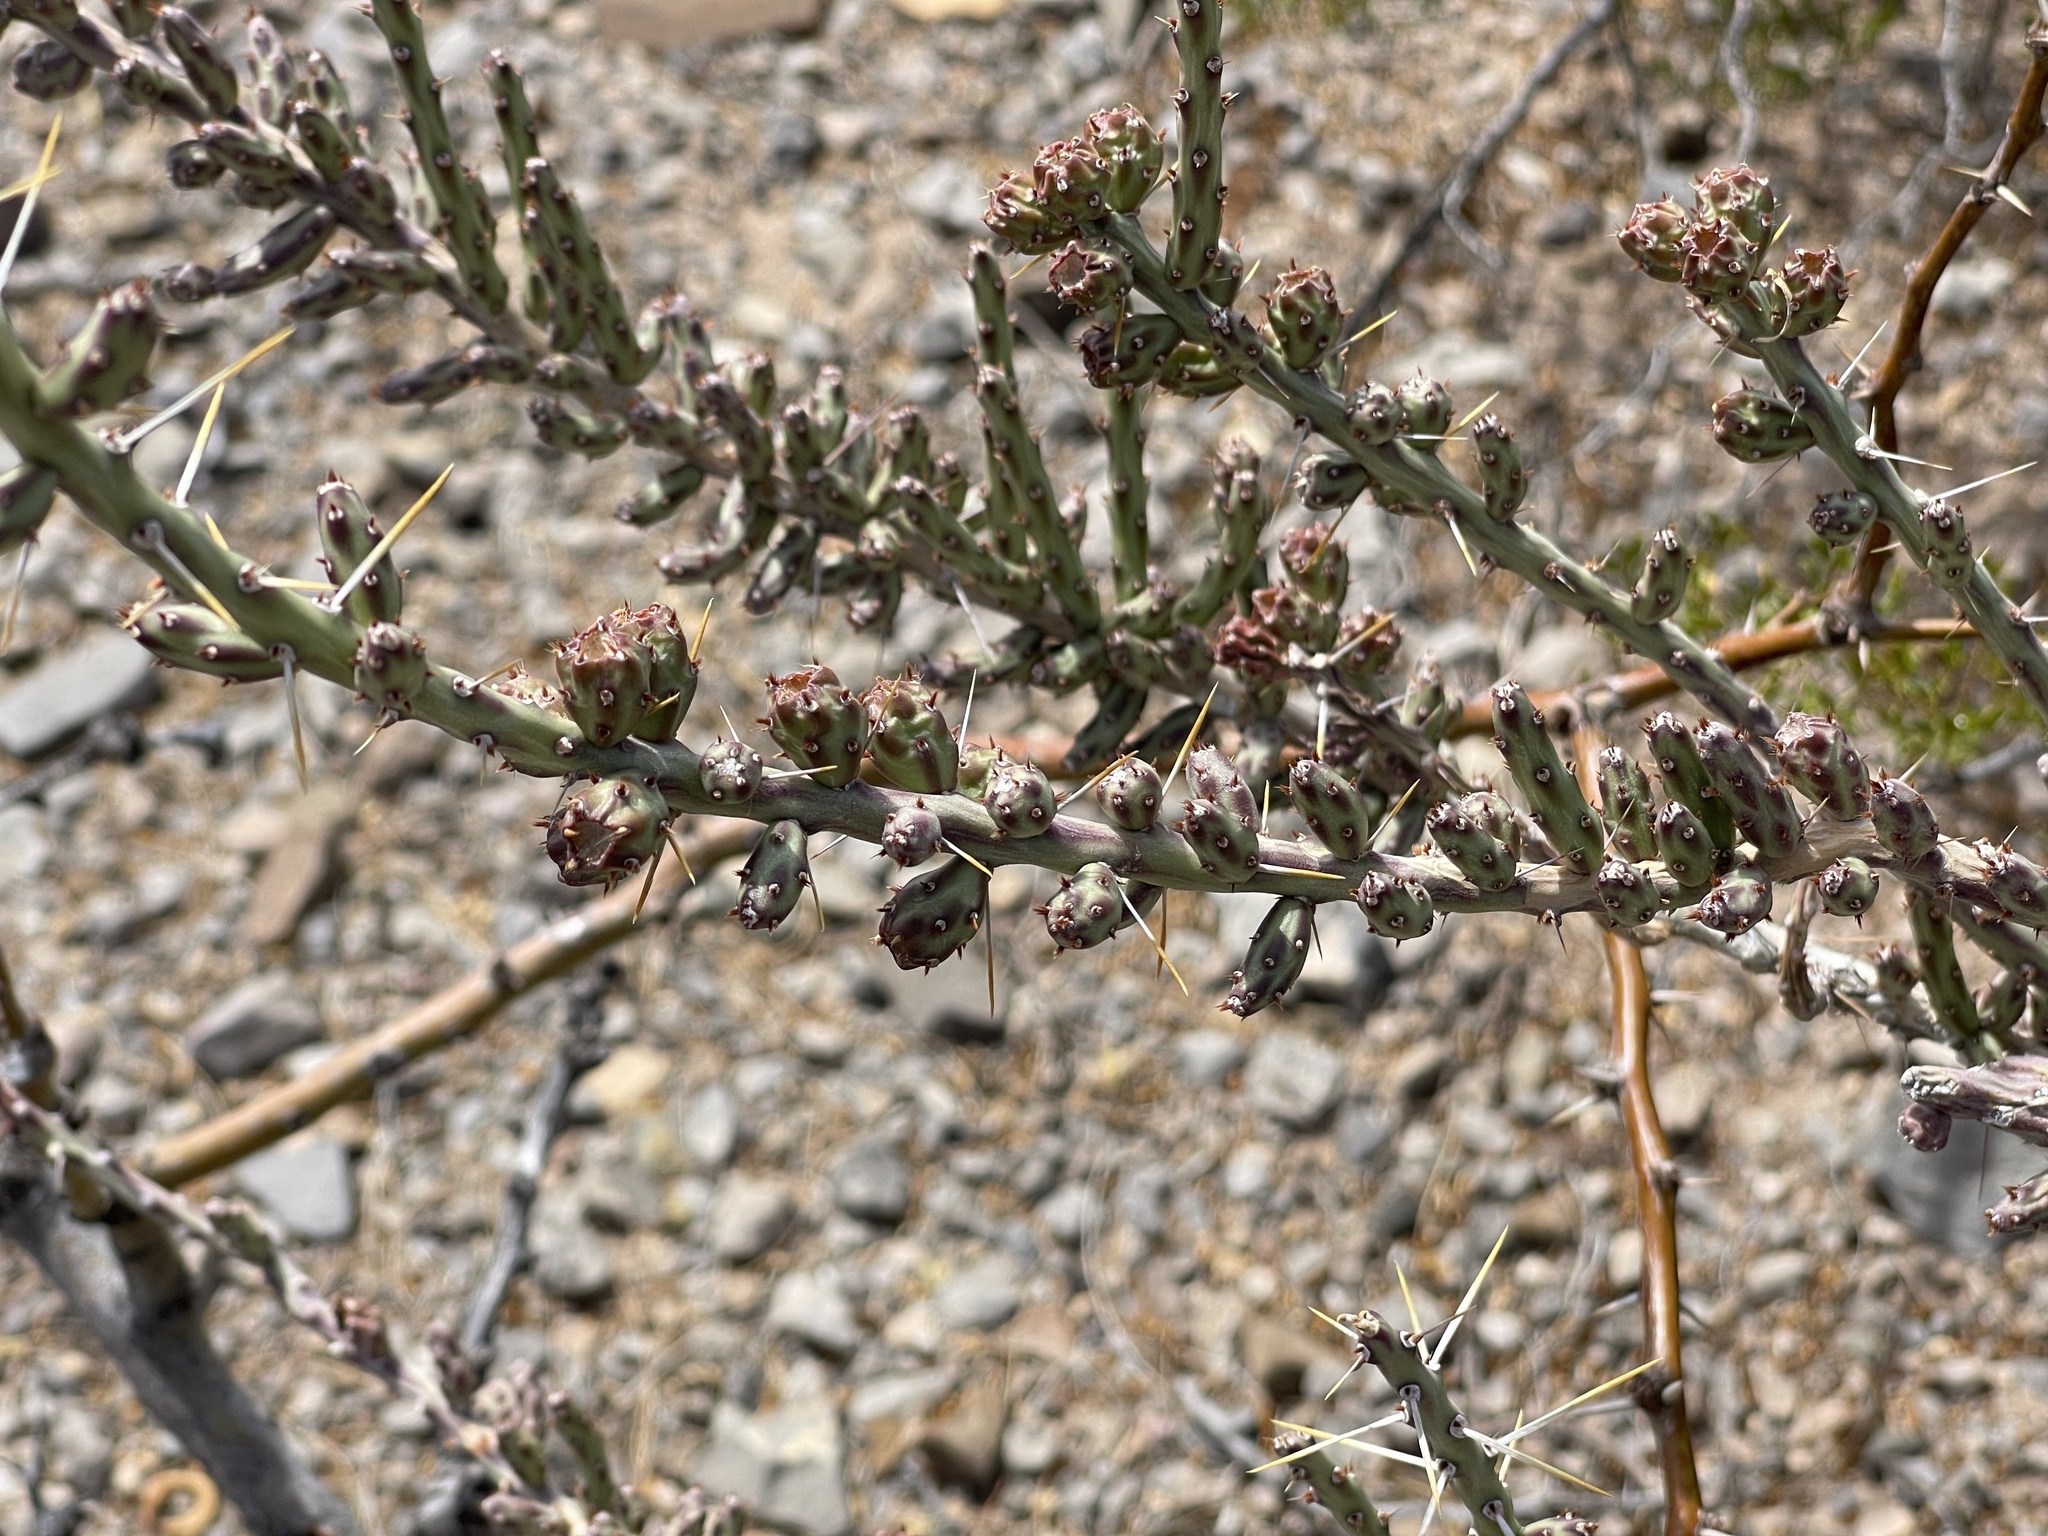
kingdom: Plantae
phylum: Tracheophyta
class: Magnoliopsida
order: Caryophyllales
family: Cactaceae
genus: Cylindropuntia
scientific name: Cylindropuntia leptocaulis
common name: Christmas cactus
